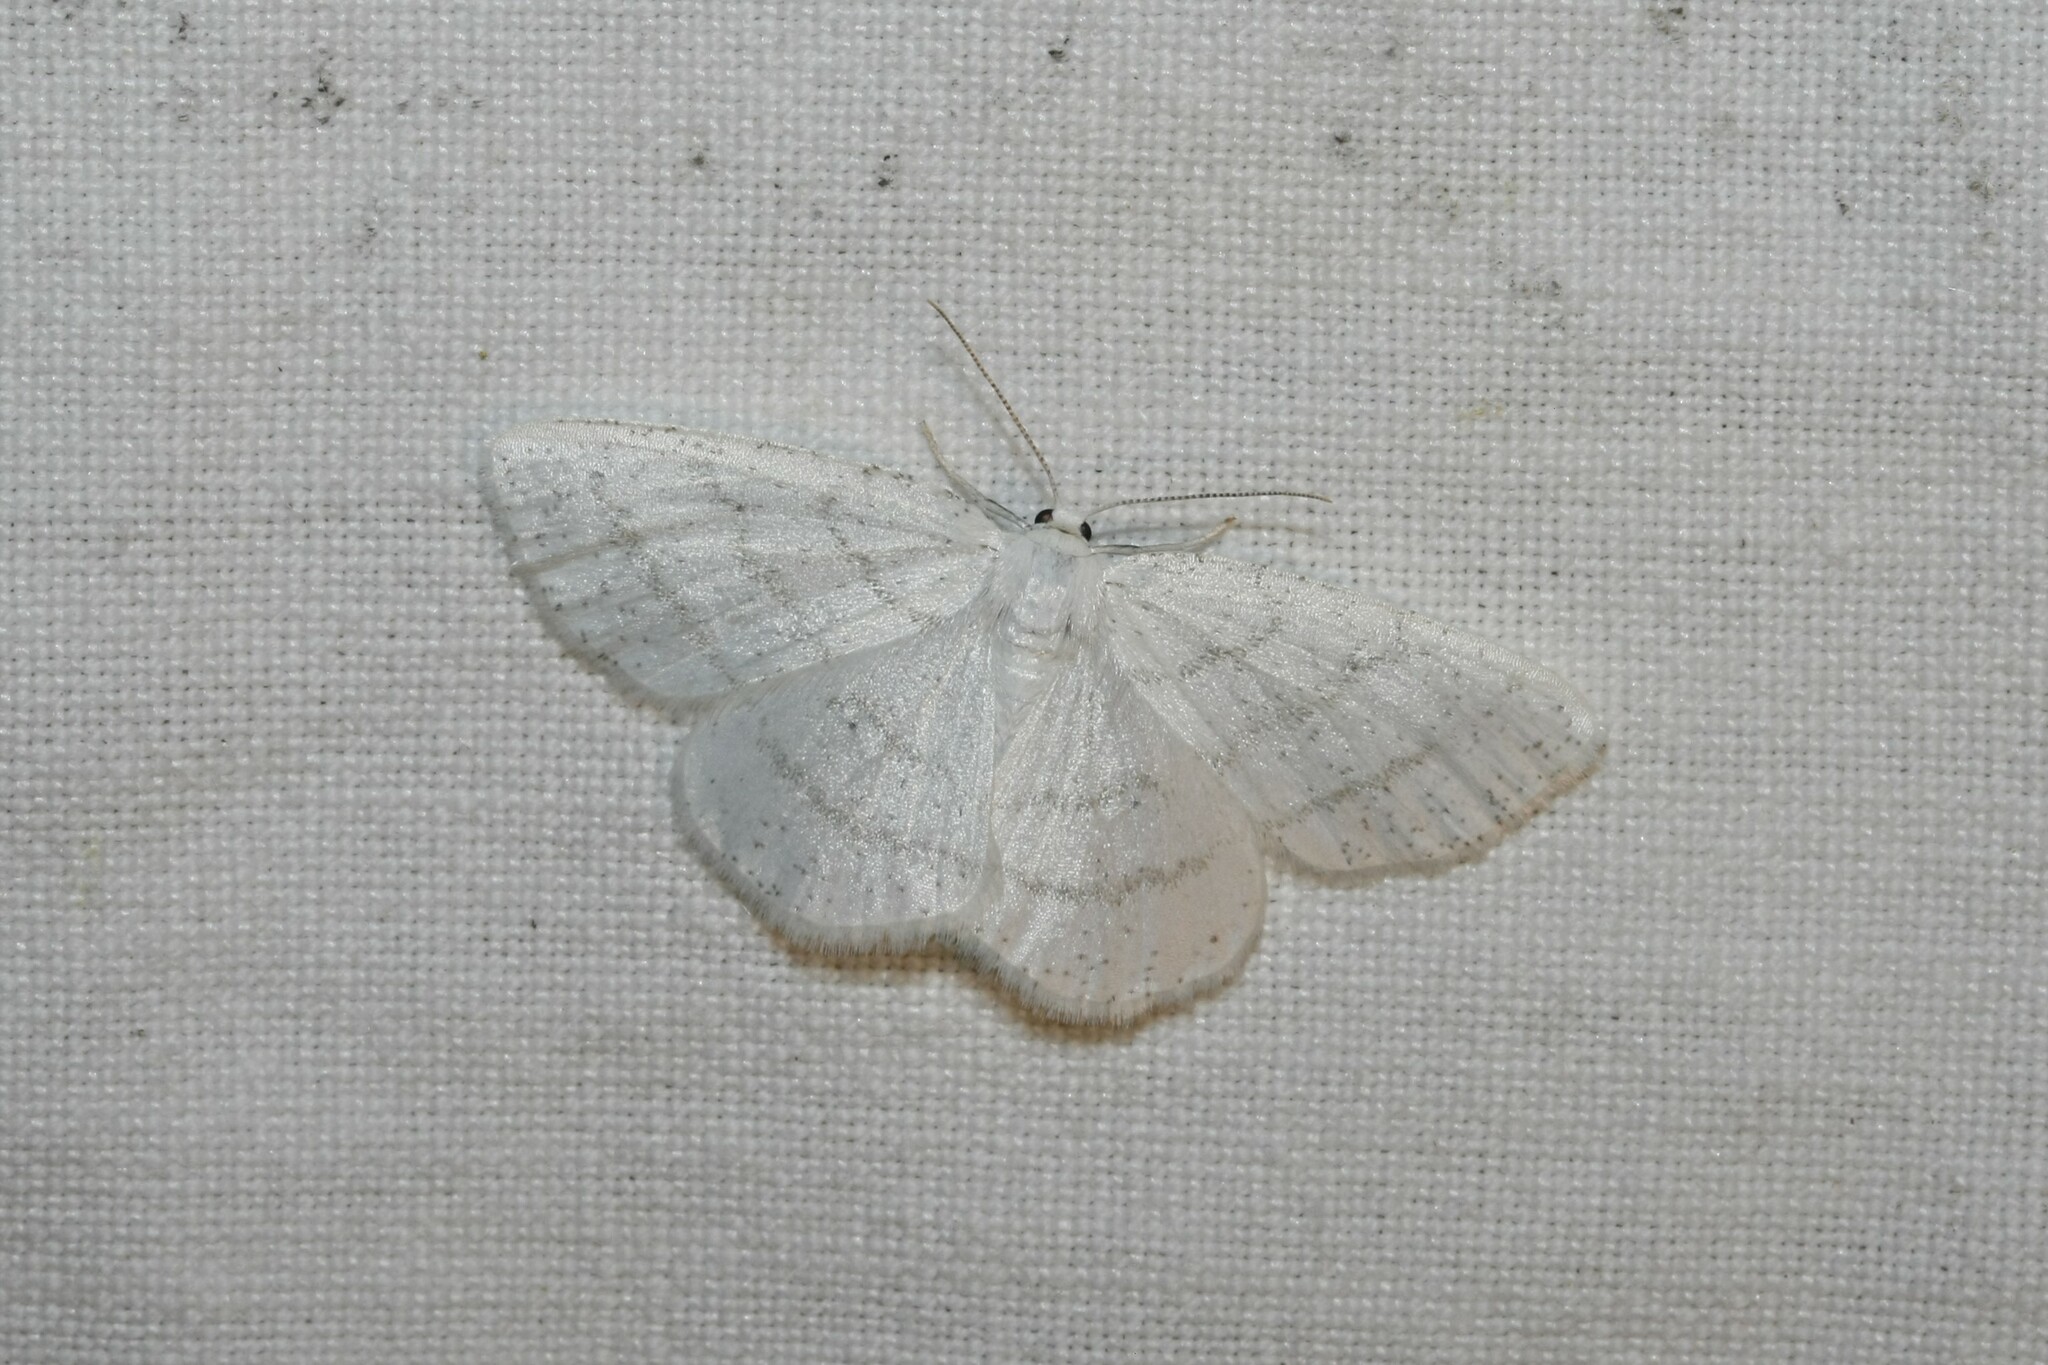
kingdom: Animalia
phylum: Arthropoda
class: Insecta
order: Lepidoptera
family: Geometridae
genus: Cabera
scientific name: Cabera pusaria
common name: Common white wave
